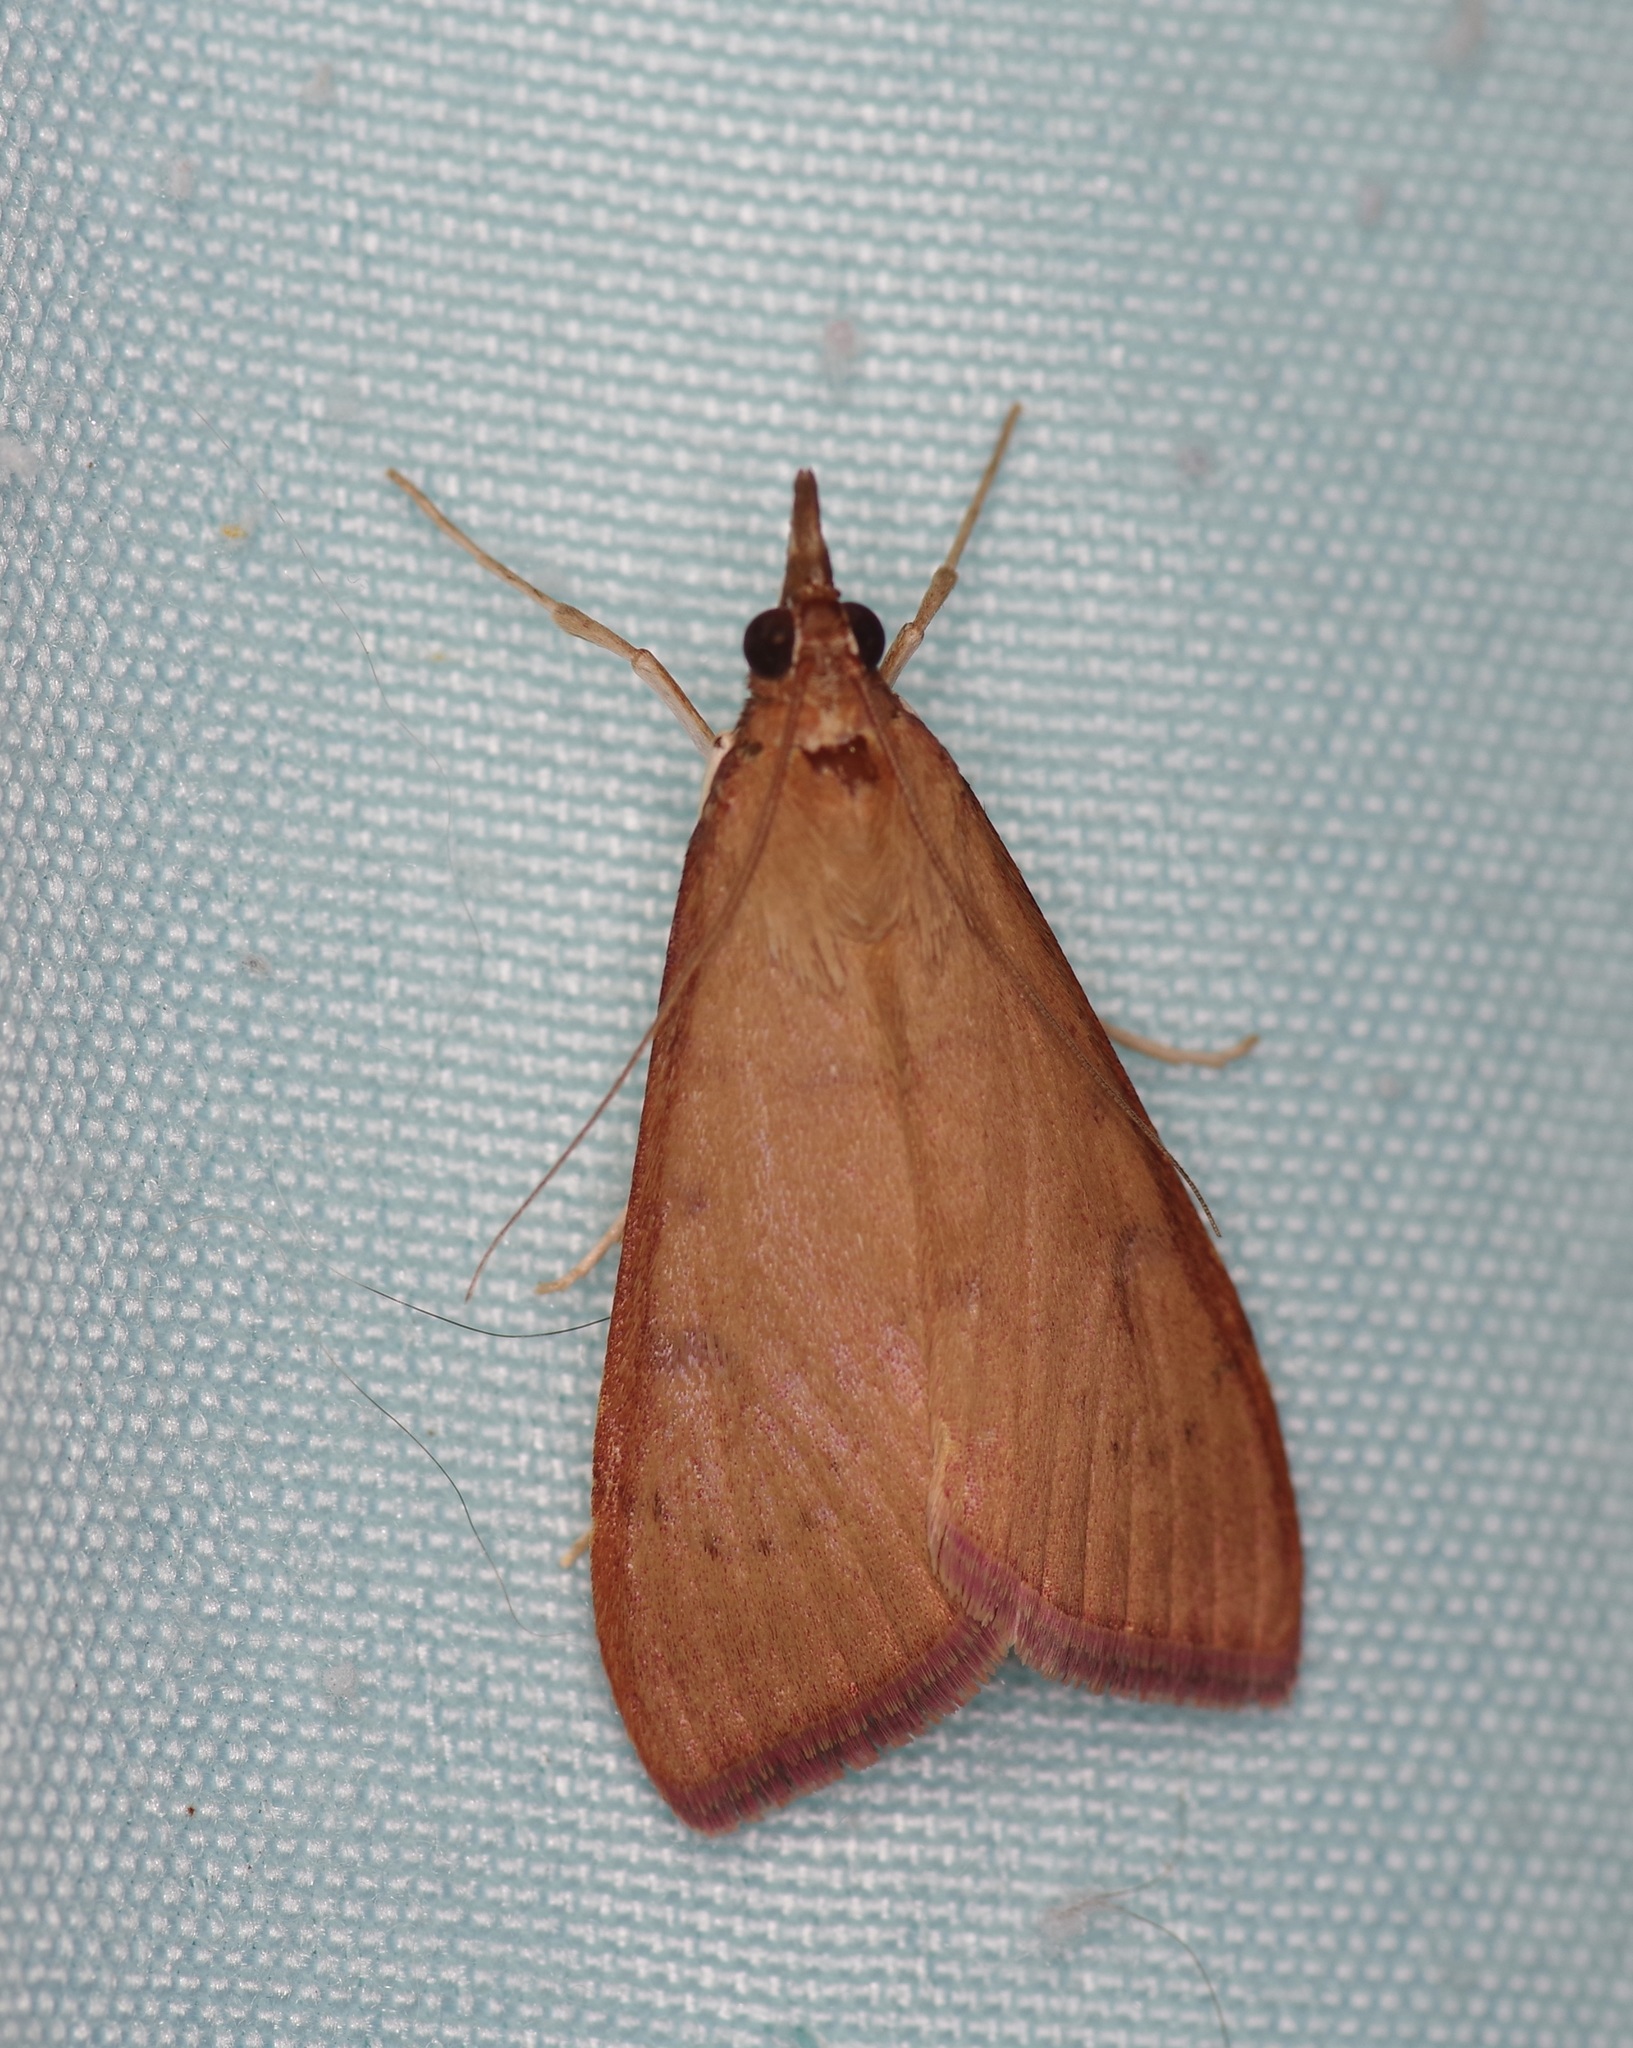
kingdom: Animalia
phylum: Arthropoda
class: Insecta
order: Lepidoptera
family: Crambidae
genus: Uresiphita
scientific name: Uresiphita reversalis
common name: Genista broom moth
